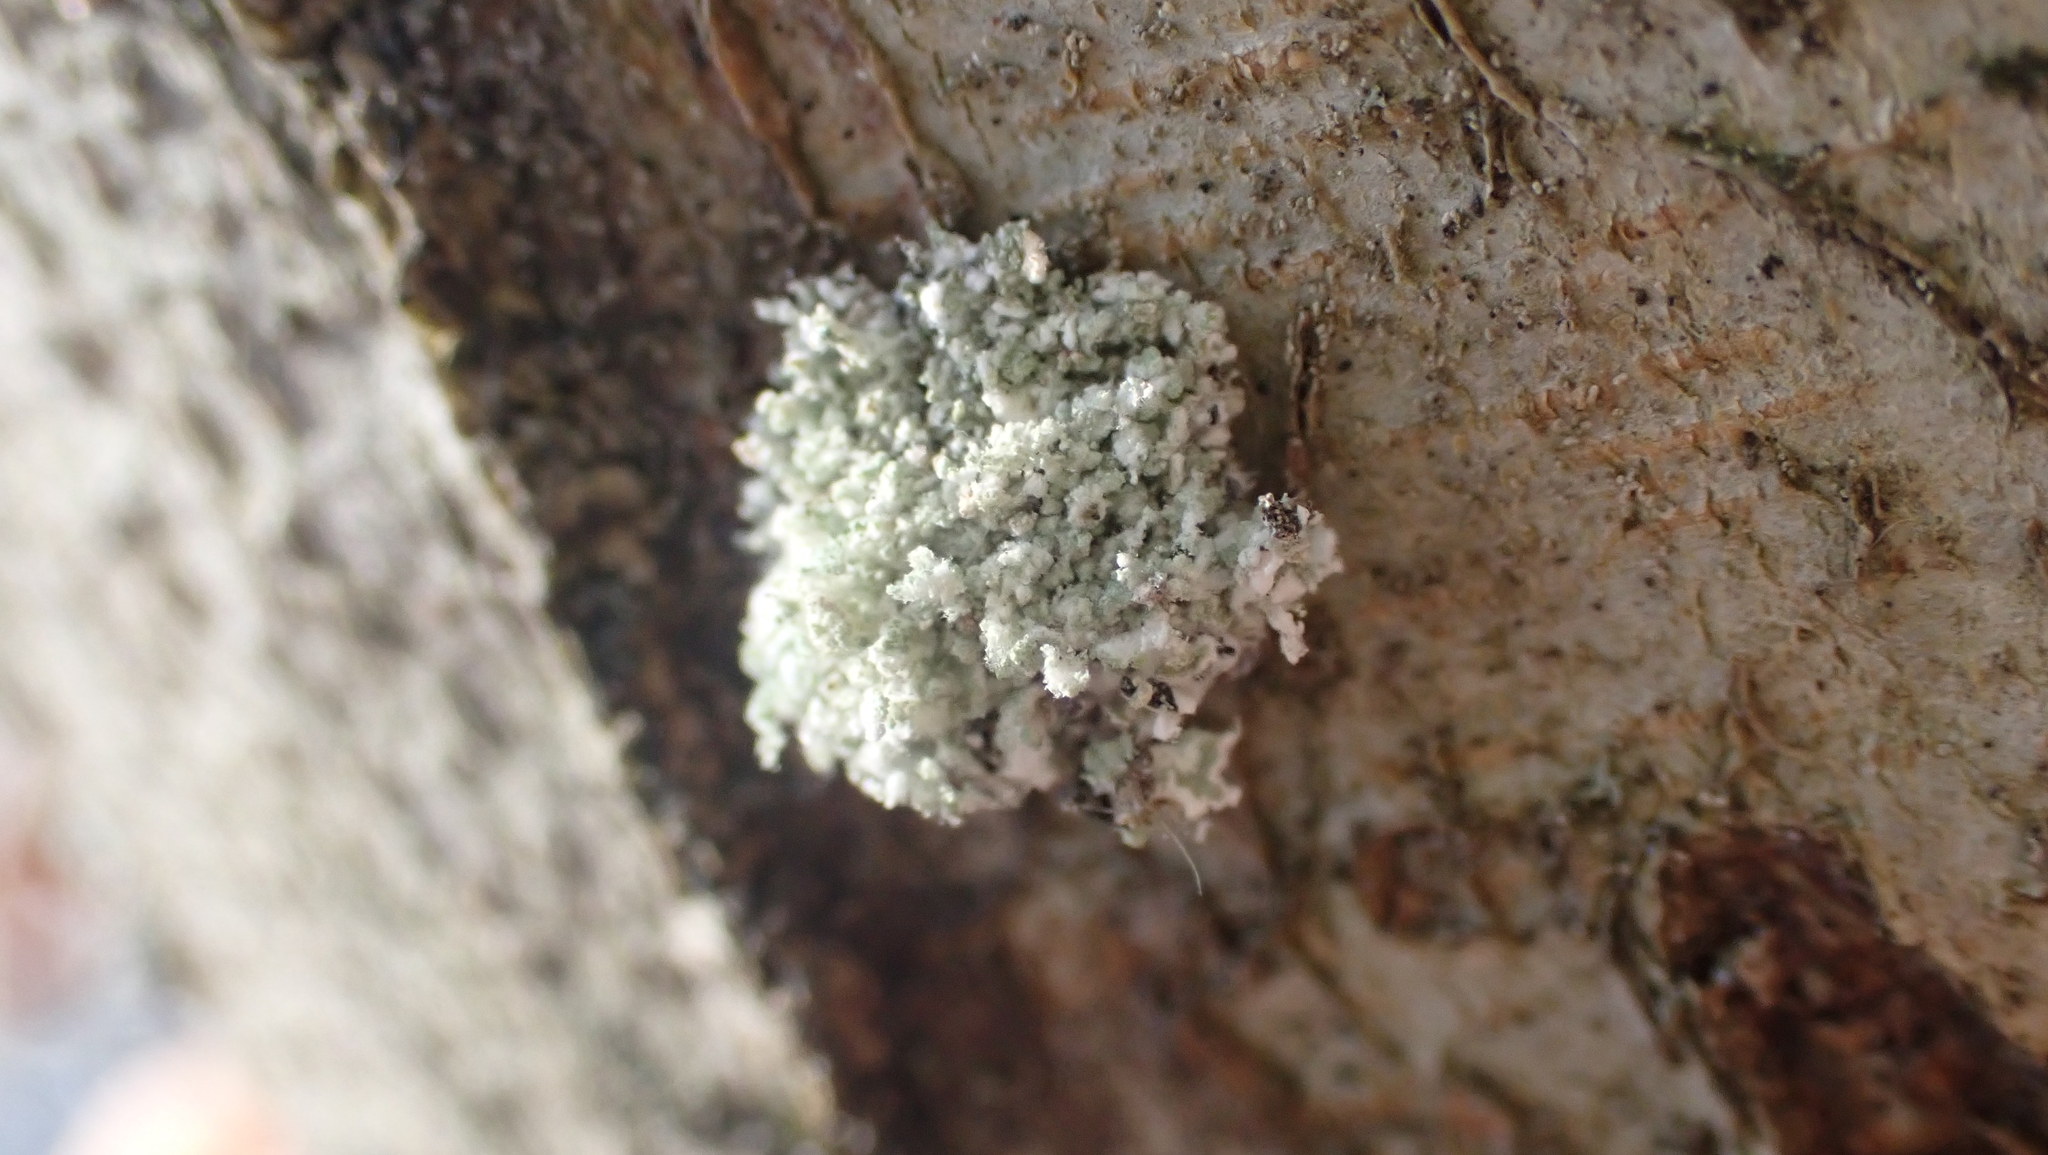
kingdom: Animalia
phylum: Arthropoda
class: Insecta
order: Neuroptera
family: Chrysopidae
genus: Leucochrysa
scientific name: Leucochrysa pavida
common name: Lichen-carrying green lacewing
